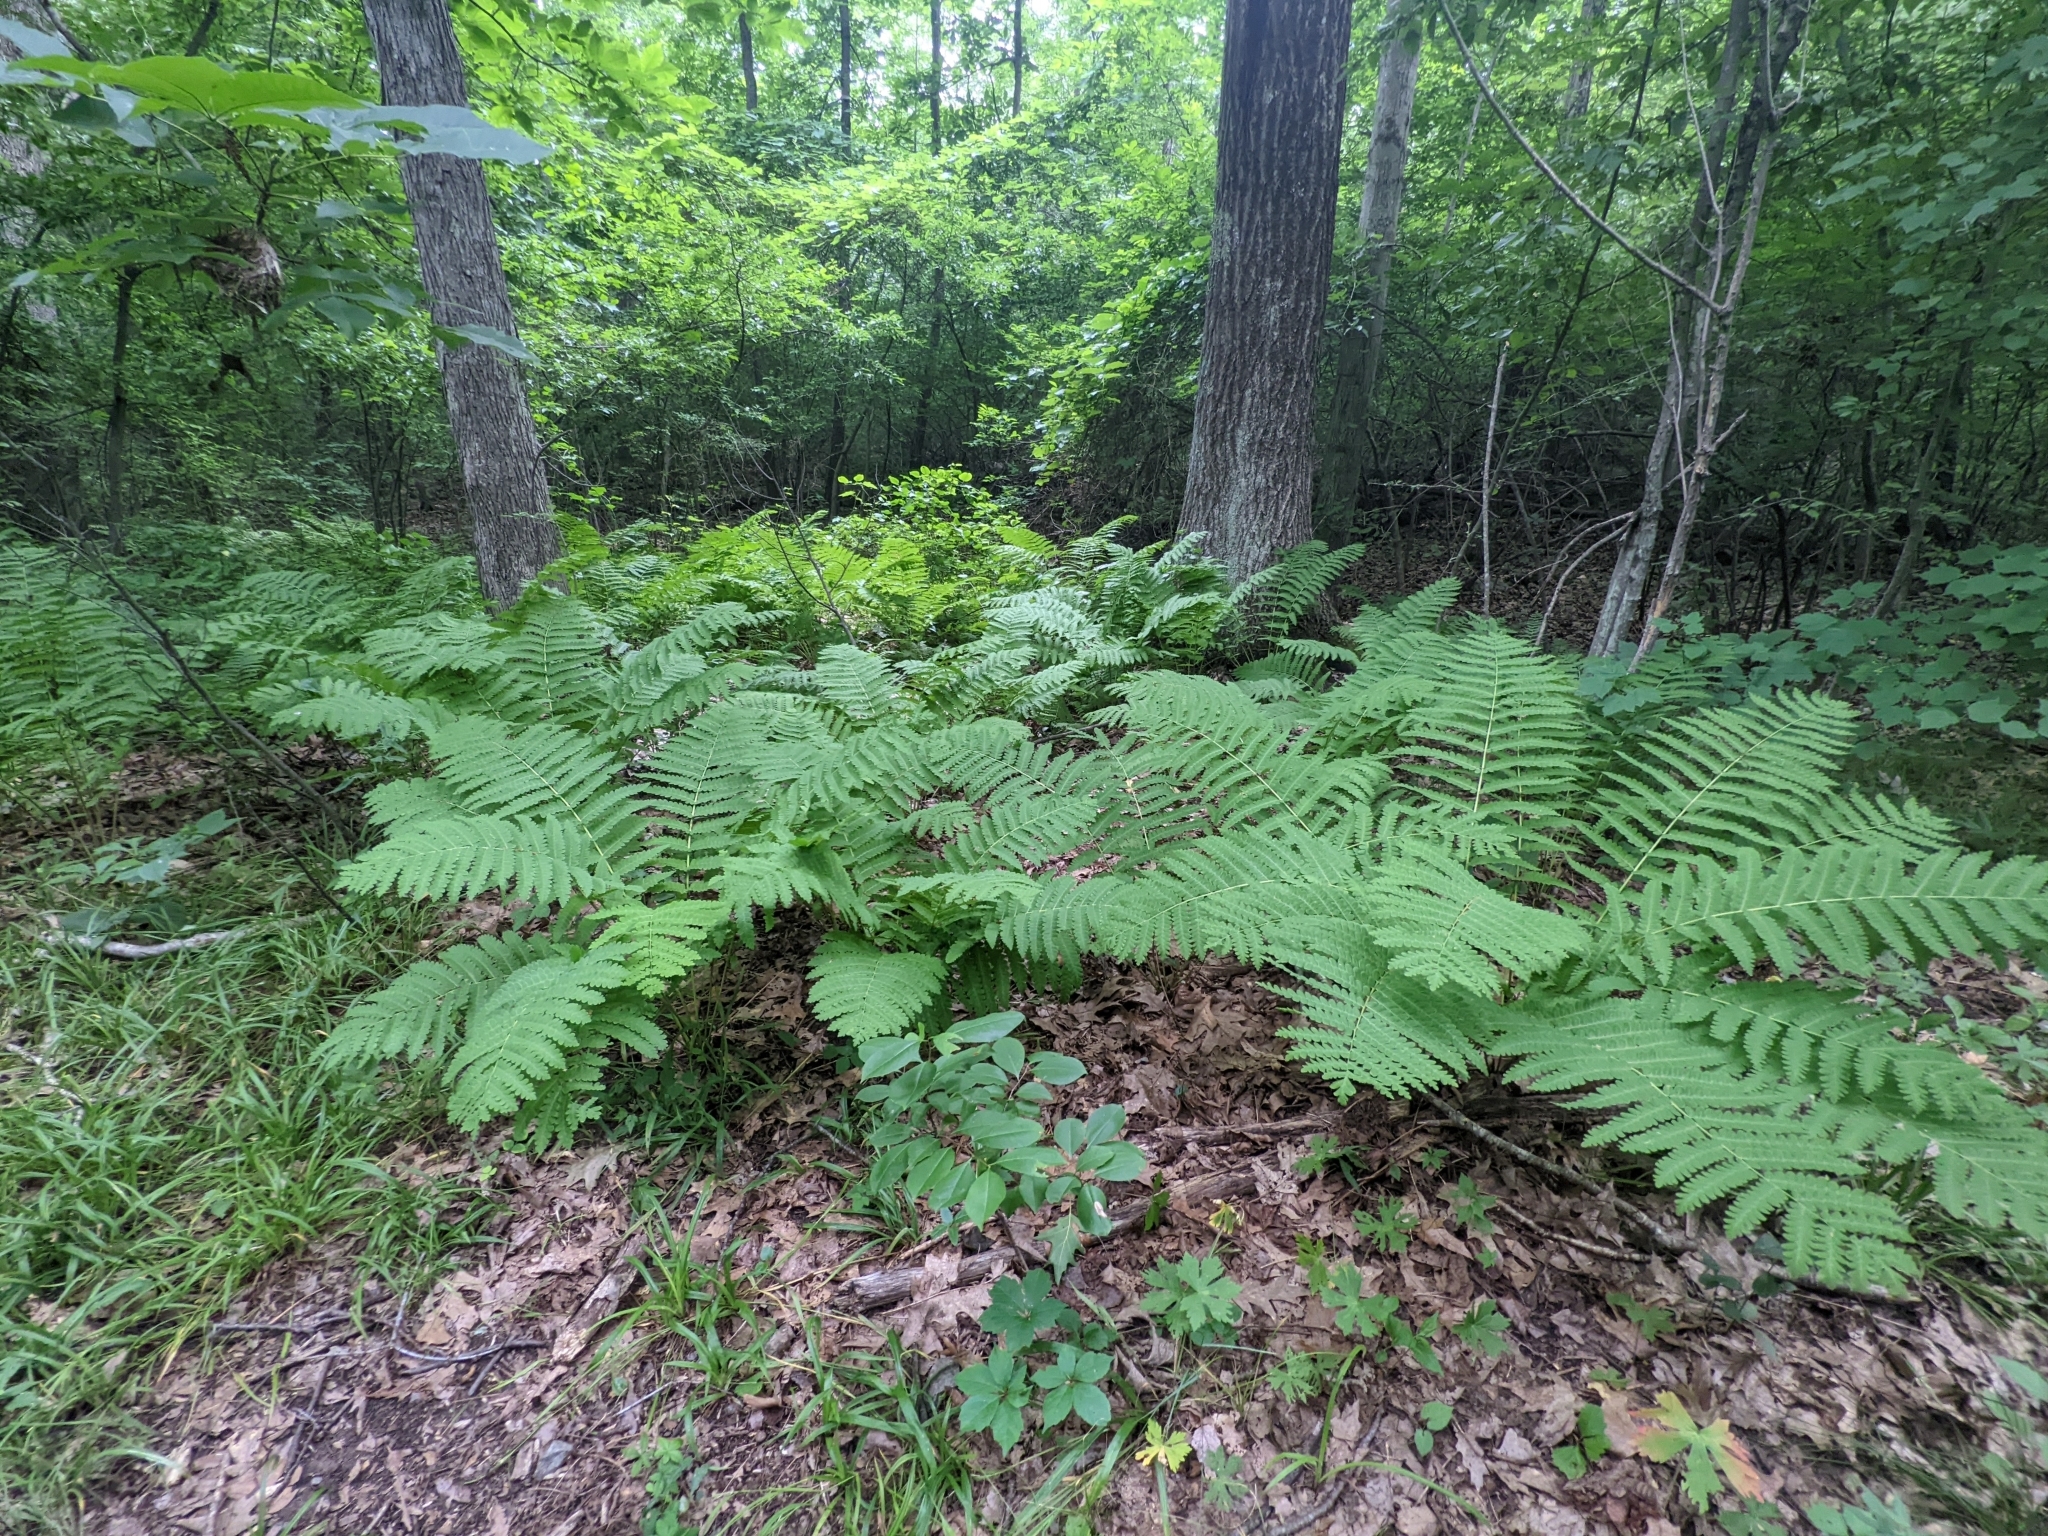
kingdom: Plantae
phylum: Tracheophyta
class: Polypodiopsida
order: Osmundales
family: Osmundaceae
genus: Claytosmunda
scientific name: Claytosmunda claytoniana
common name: Clayton's fern
